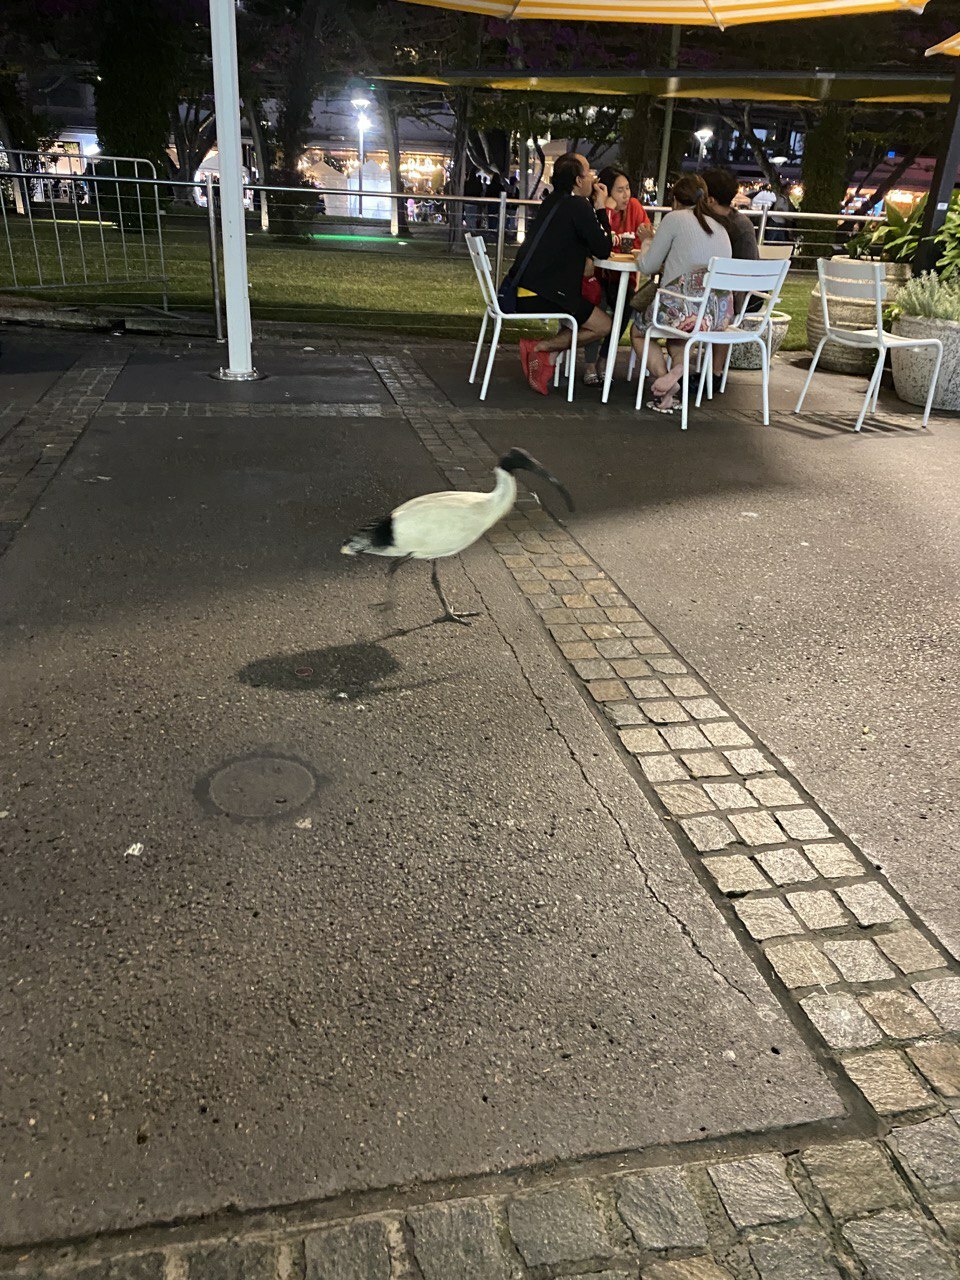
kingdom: Animalia
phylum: Chordata
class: Aves
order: Pelecaniformes
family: Threskiornithidae
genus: Threskiornis
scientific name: Threskiornis molucca
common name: Australian white ibis
